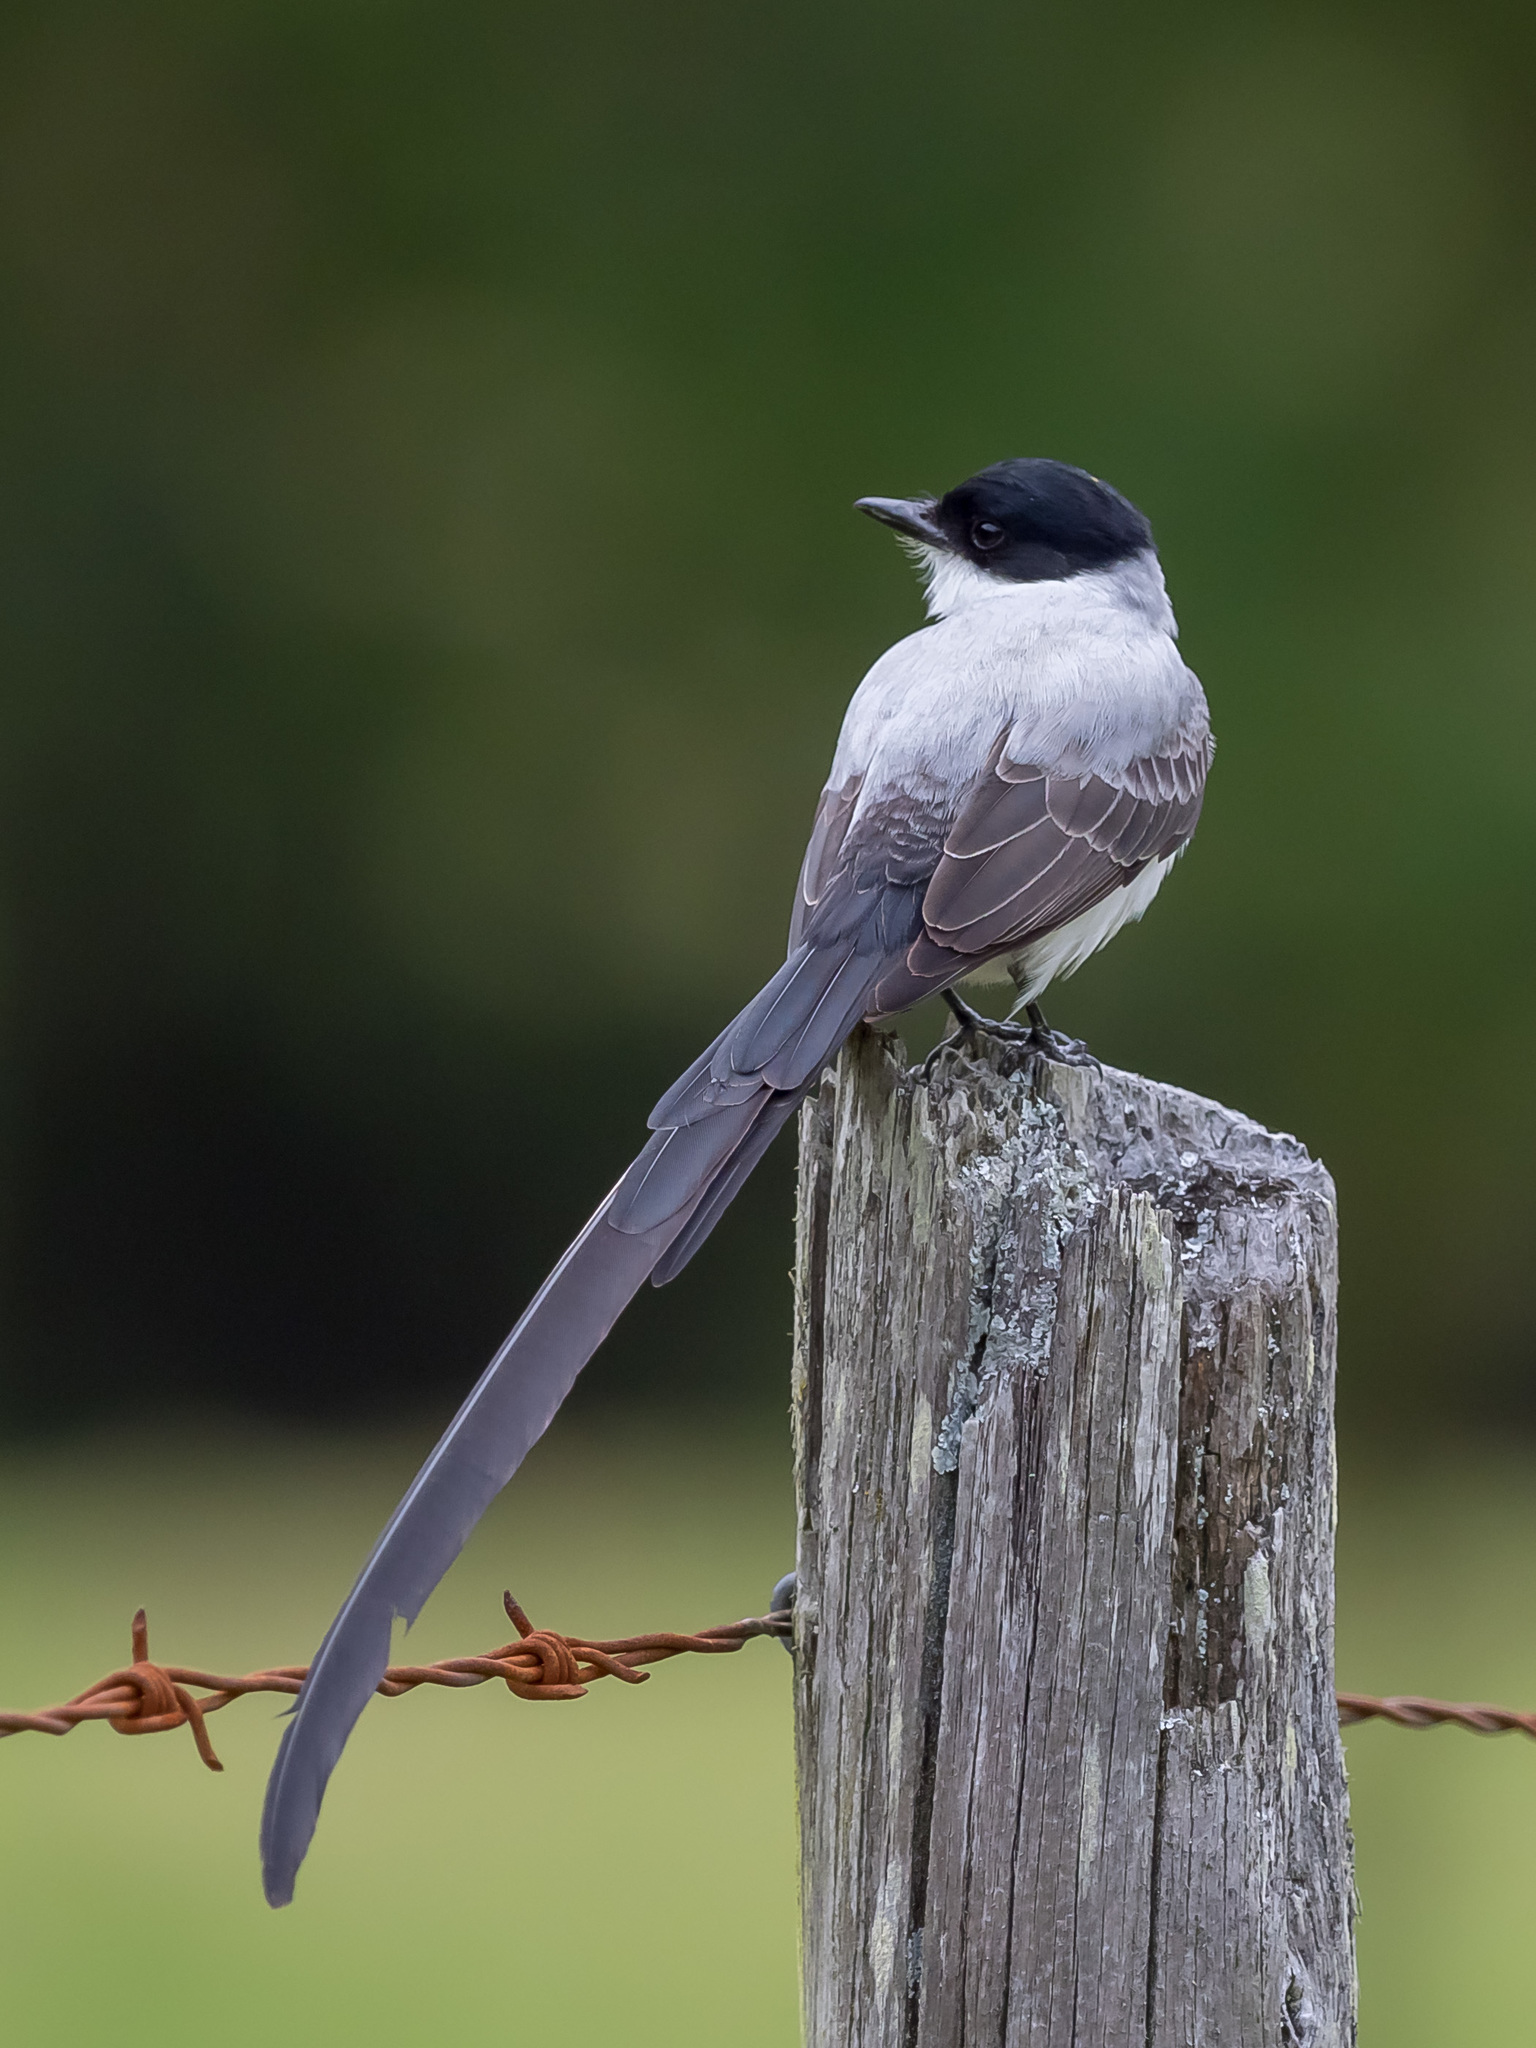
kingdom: Animalia
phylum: Chordata
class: Aves
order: Passeriformes
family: Tyrannidae
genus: Tyrannus
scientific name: Tyrannus savana
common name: Fork-tailed flycatcher
